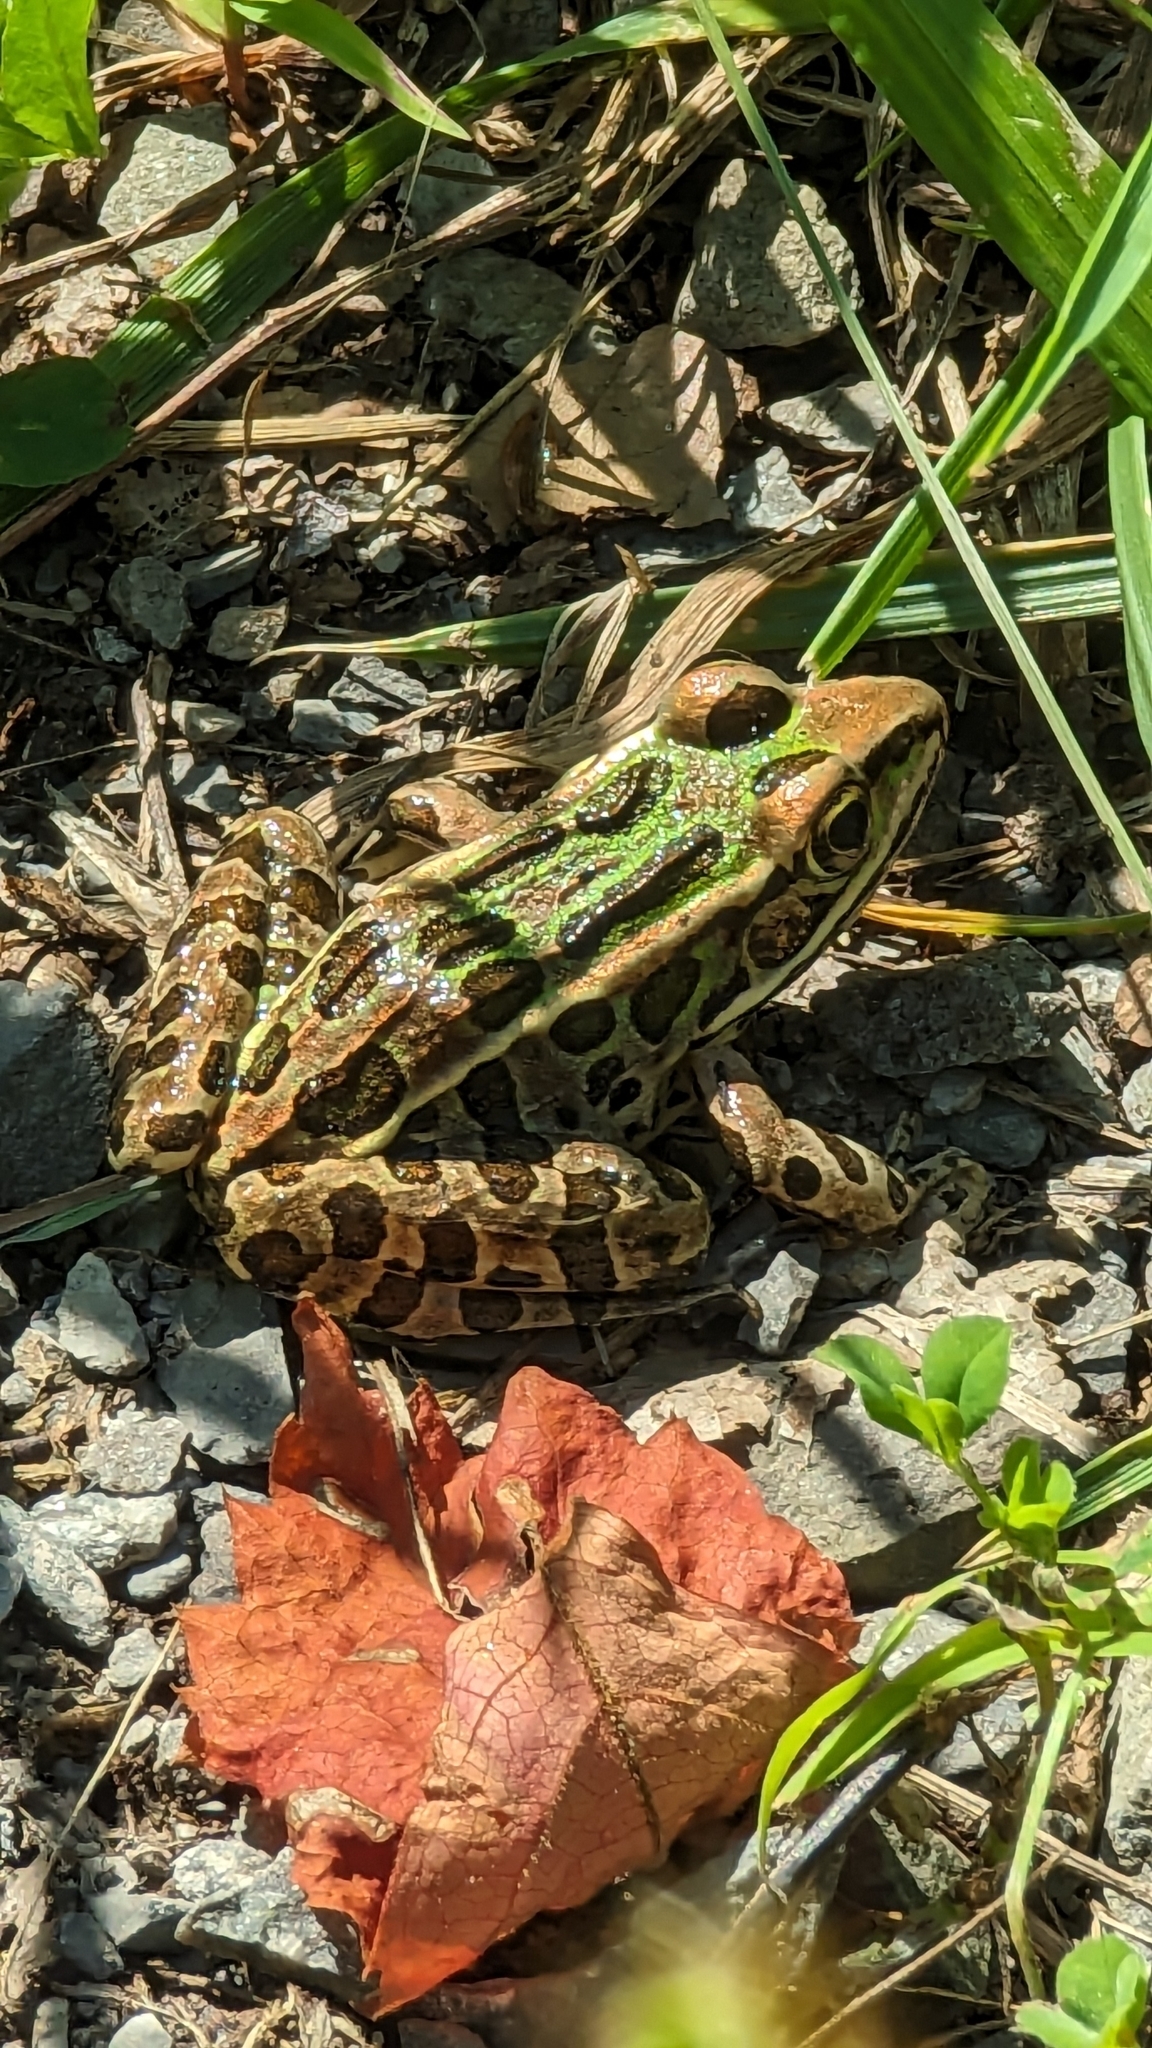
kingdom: Animalia
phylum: Chordata
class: Amphibia
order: Anura
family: Ranidae
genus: Lithobates
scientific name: Lithobates pipiens
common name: Northern leopard frog
